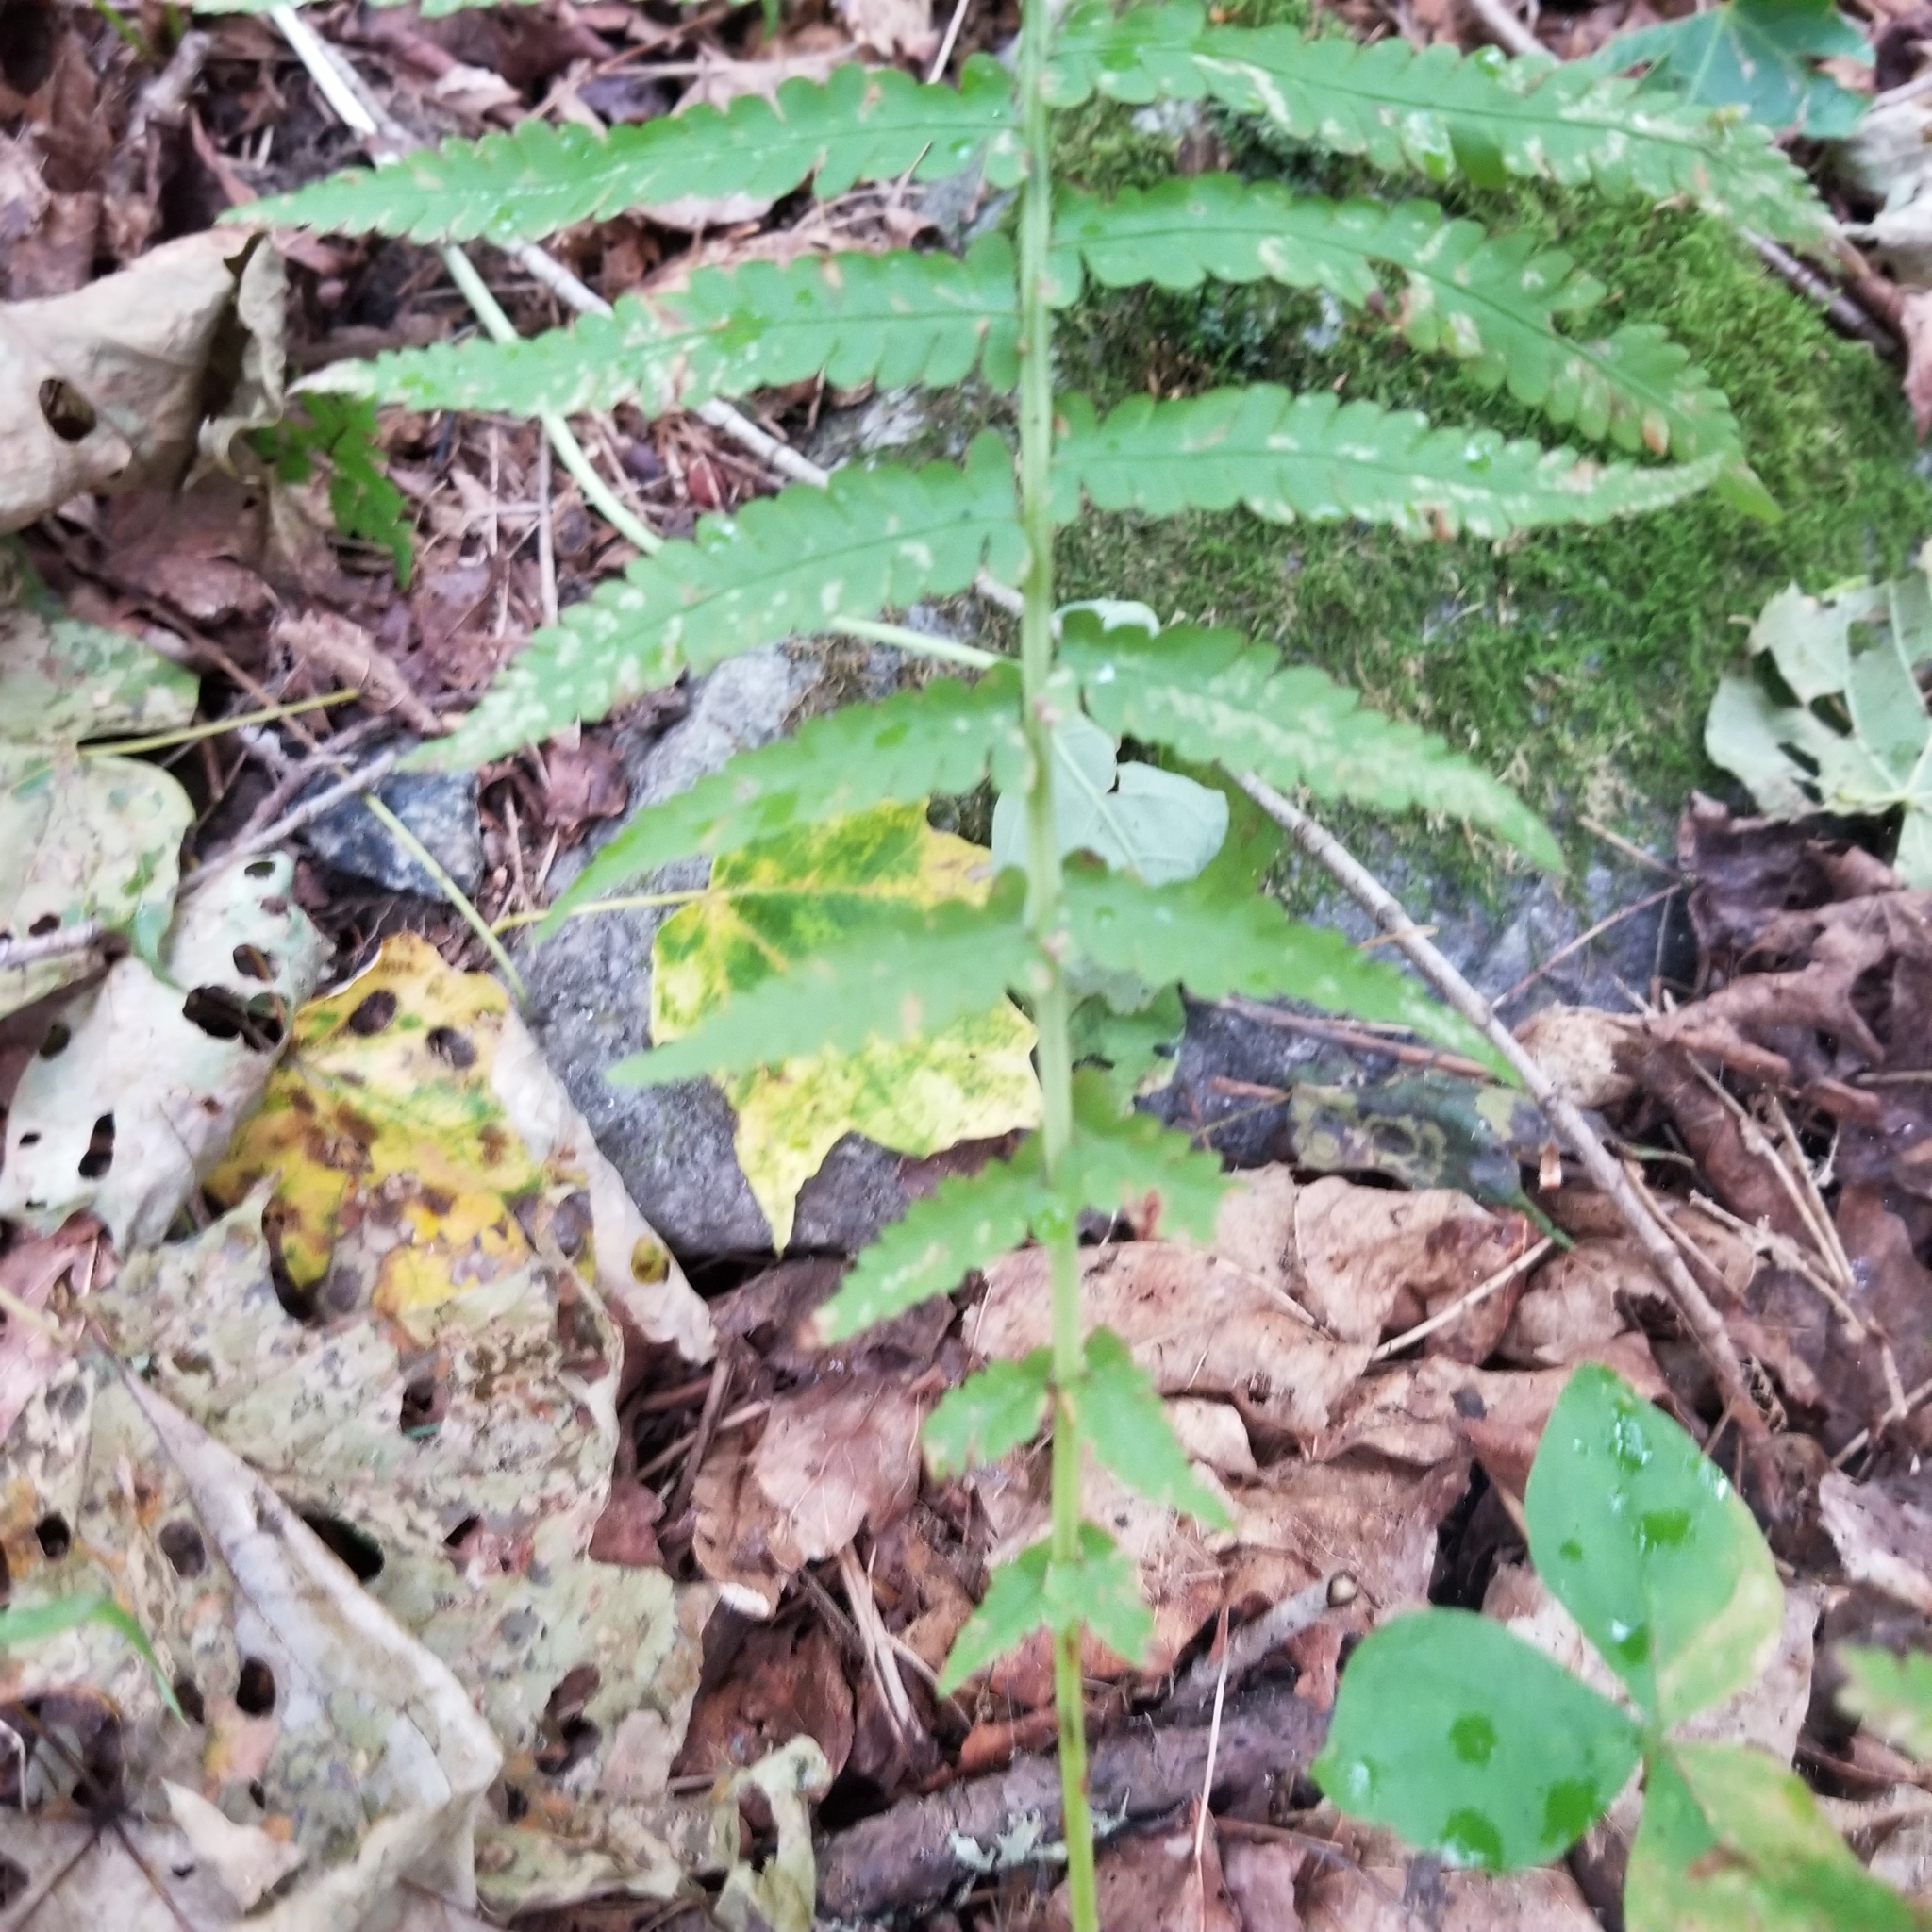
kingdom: Plantae
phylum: Tracheophyta
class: Polypodiopsida
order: Polypodiales
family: Thelypteridaceae
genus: Amauropelta
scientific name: Amauropelta noveboracensis
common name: New york fern
